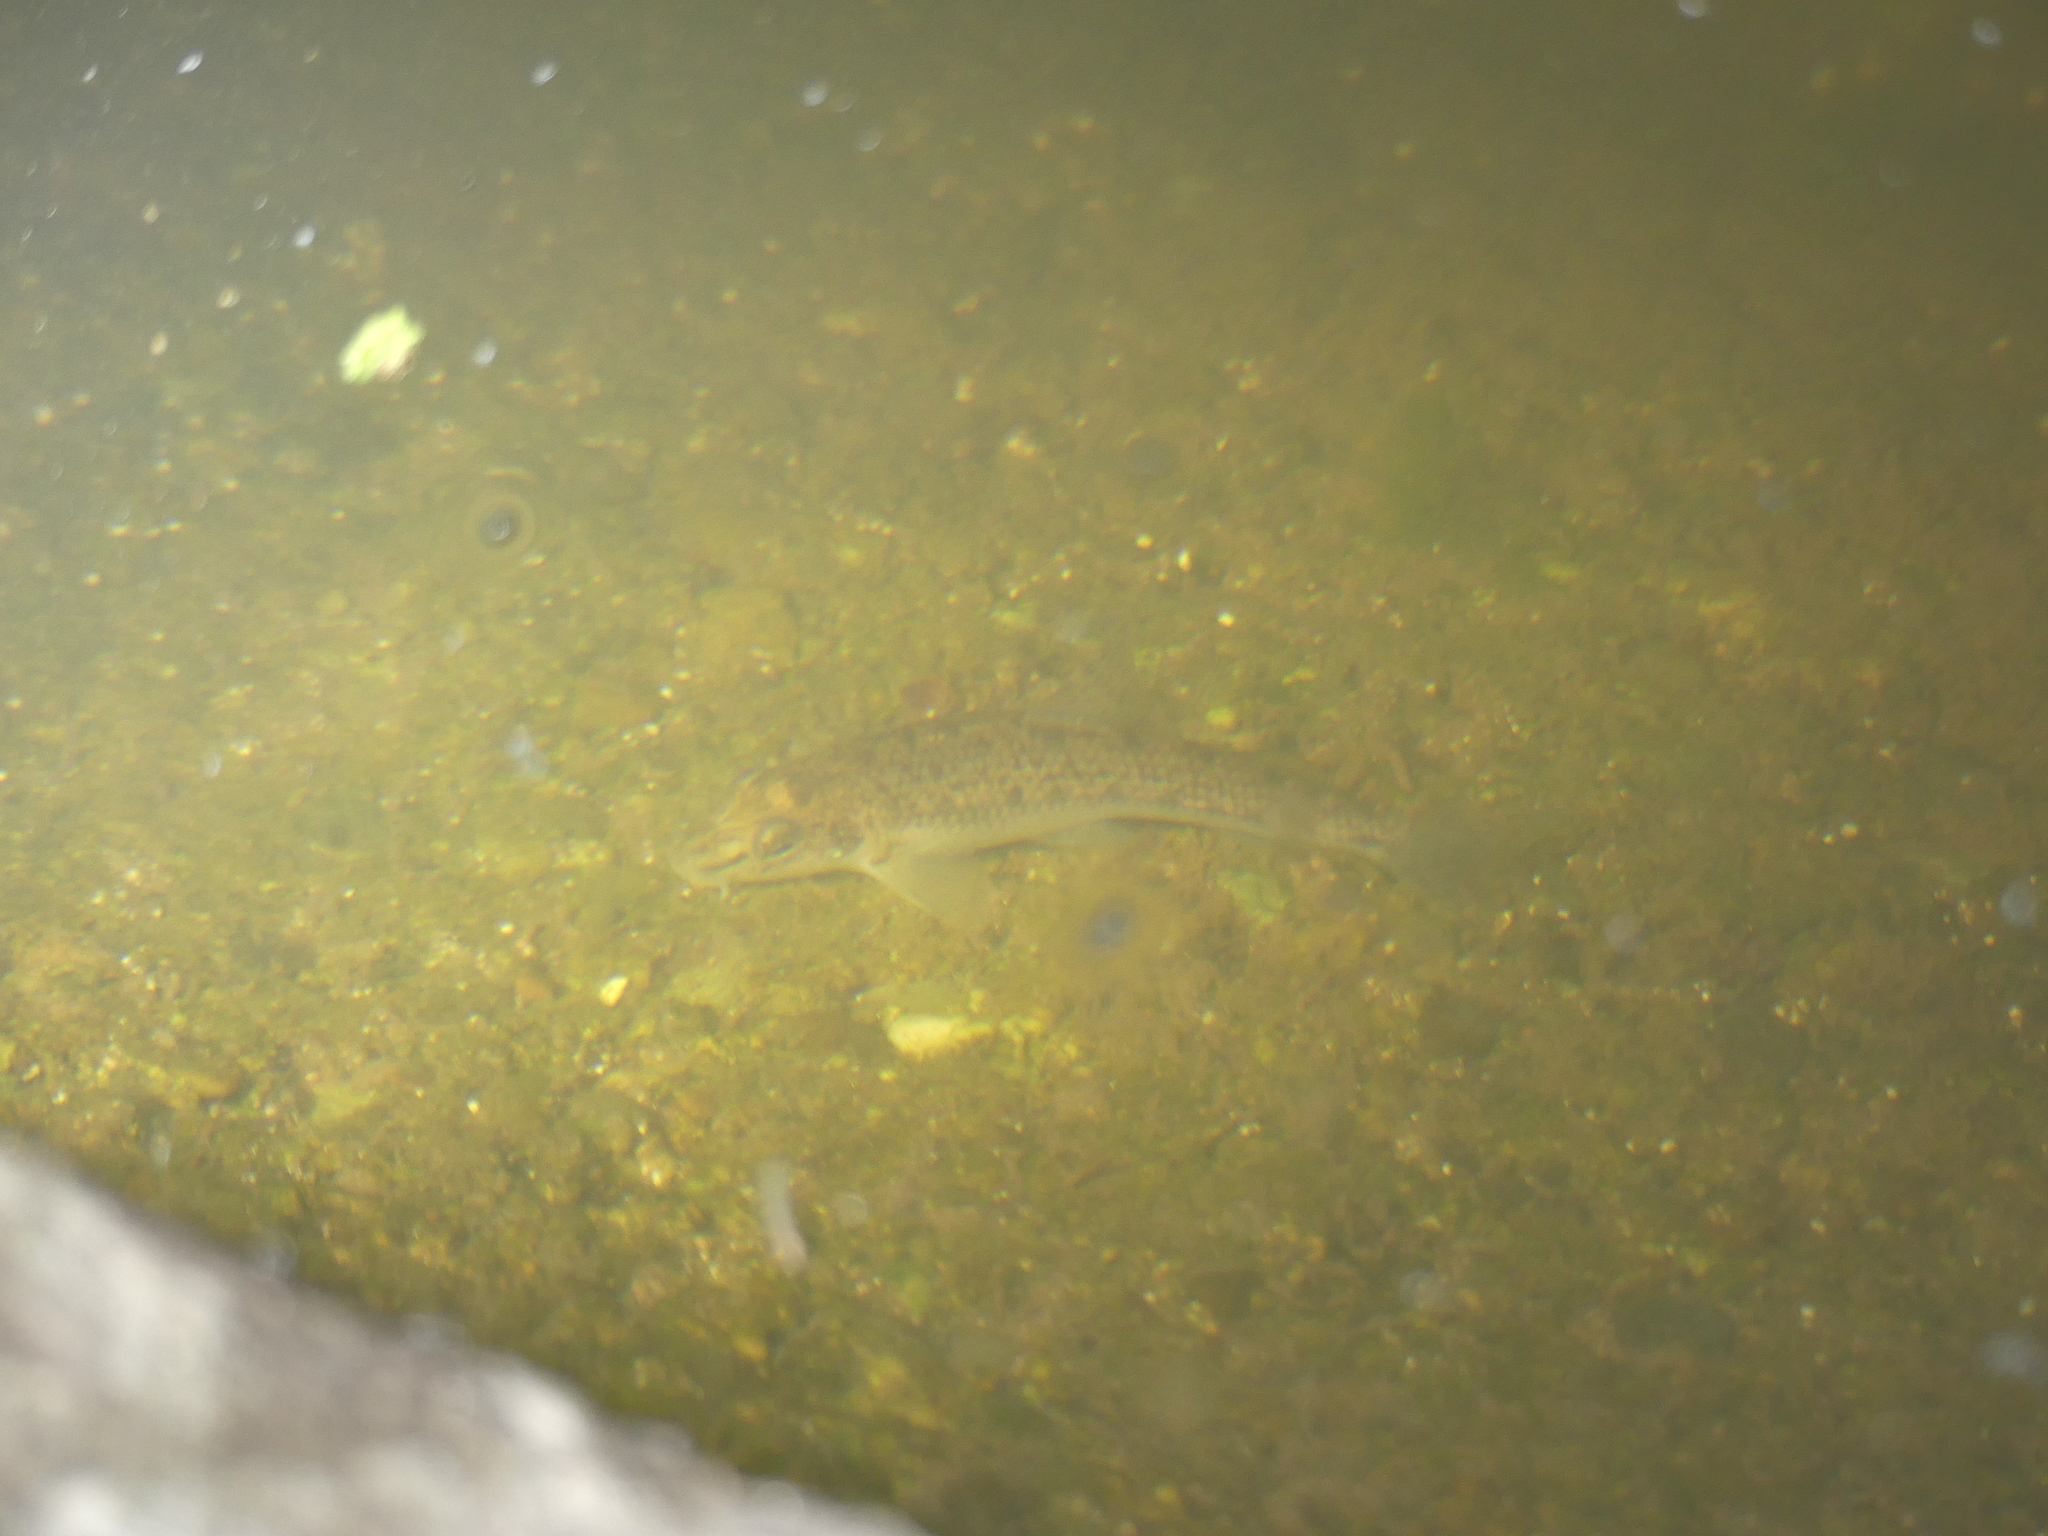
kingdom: Animalia
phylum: Chordata
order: Cypriniformes
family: Cyprinidae
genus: Gobio
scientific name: Gobio gobio
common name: Gudgeon
